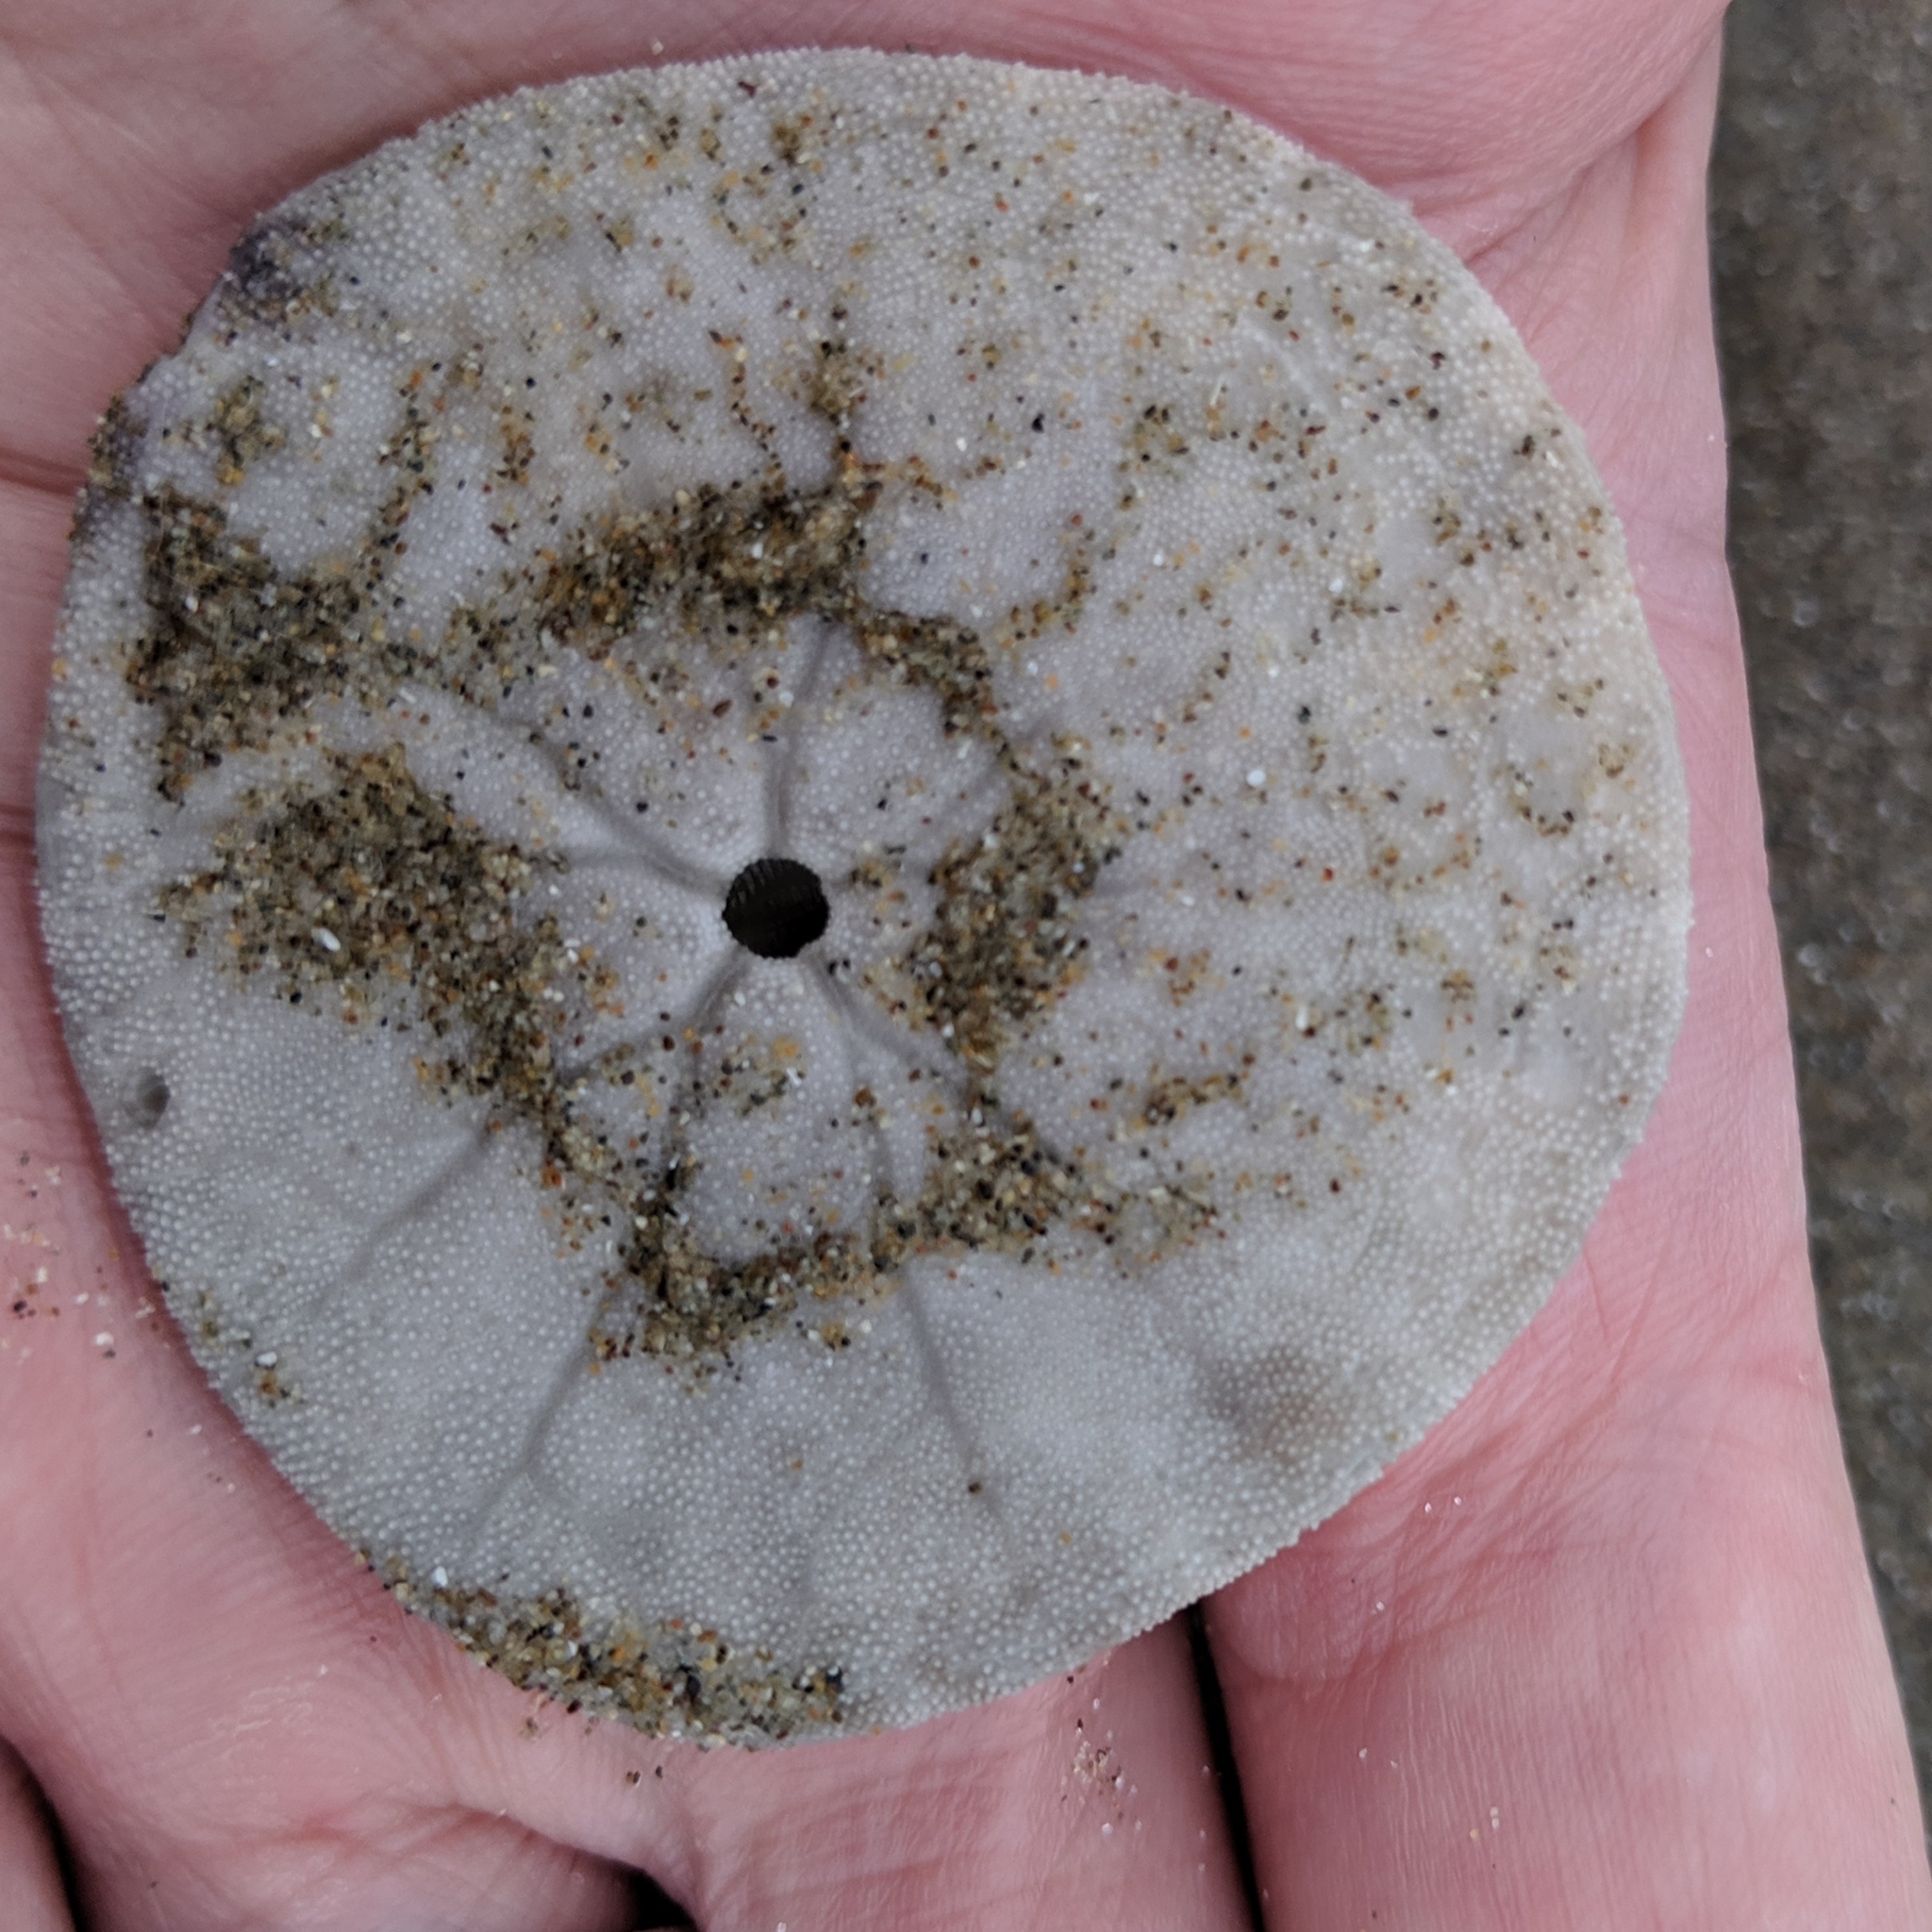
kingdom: Animalia
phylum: Echinodermata
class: Echinoidea
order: Echinolampadacea
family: Dendrasteridae
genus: Dendraster
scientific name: Dendraster excentricus
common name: Eccentric sand dollar sea urchin
